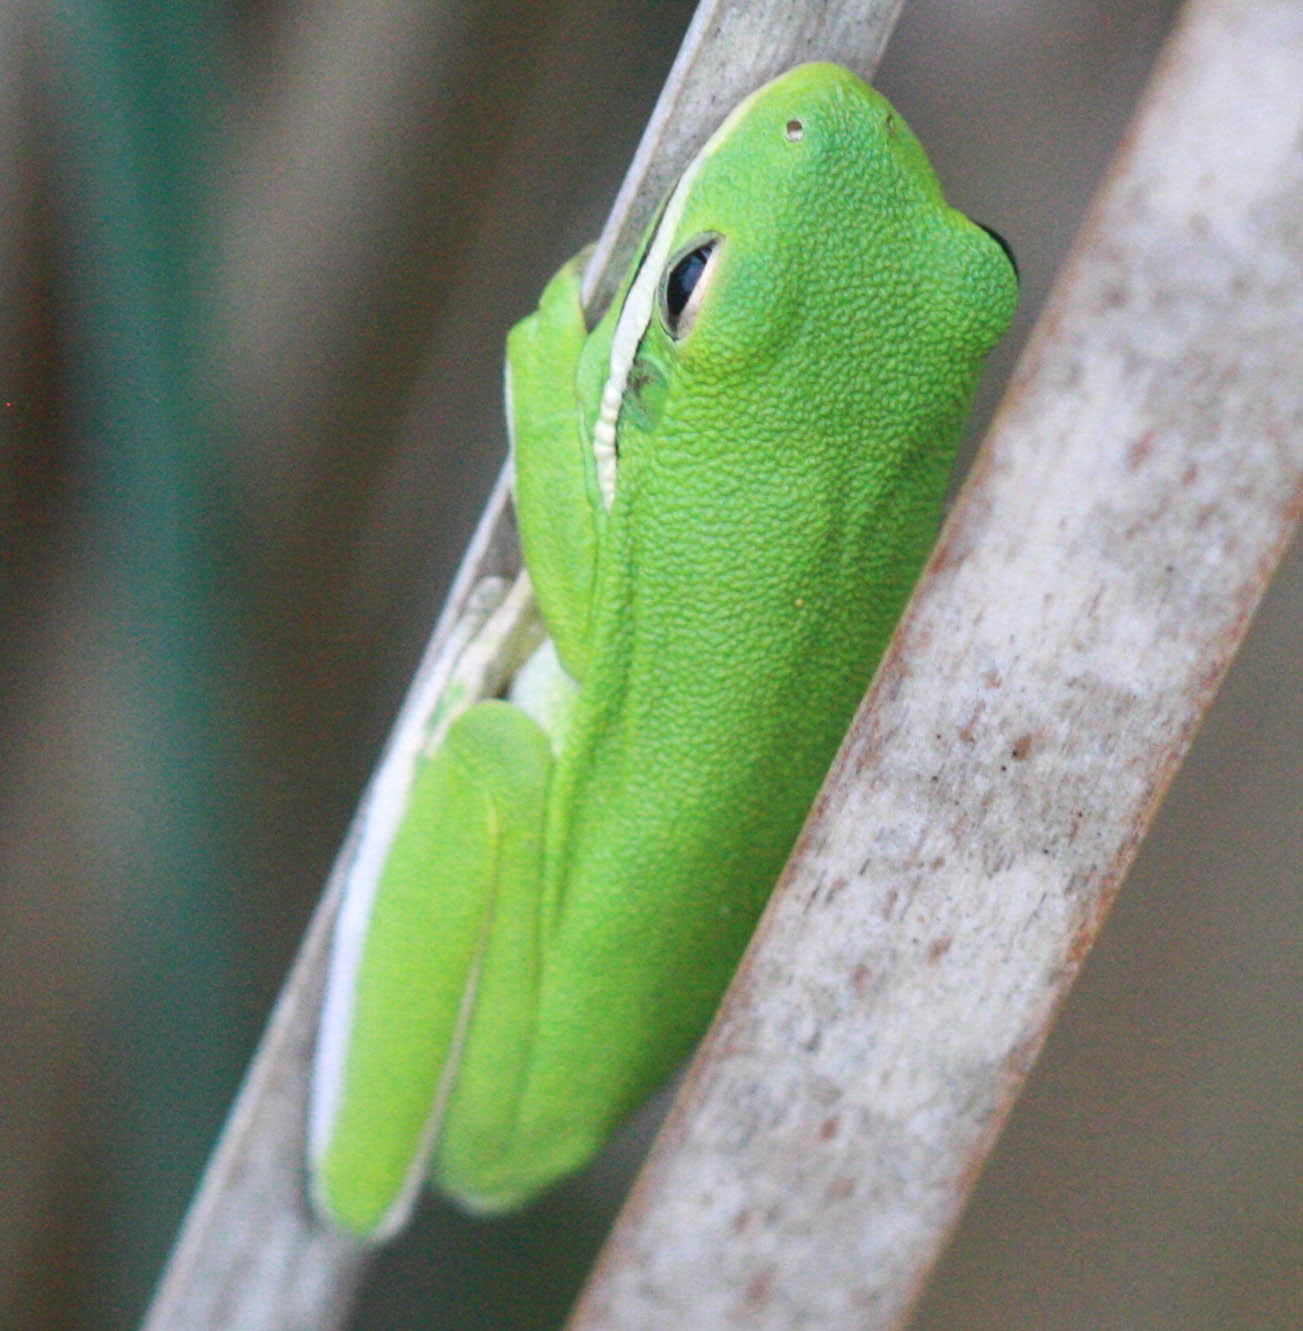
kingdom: Animalia
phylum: Chordata
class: Amphibia
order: Anura
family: Hylidae
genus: Dryophytes
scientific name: Dryophytes cinereus
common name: Green treefrog
